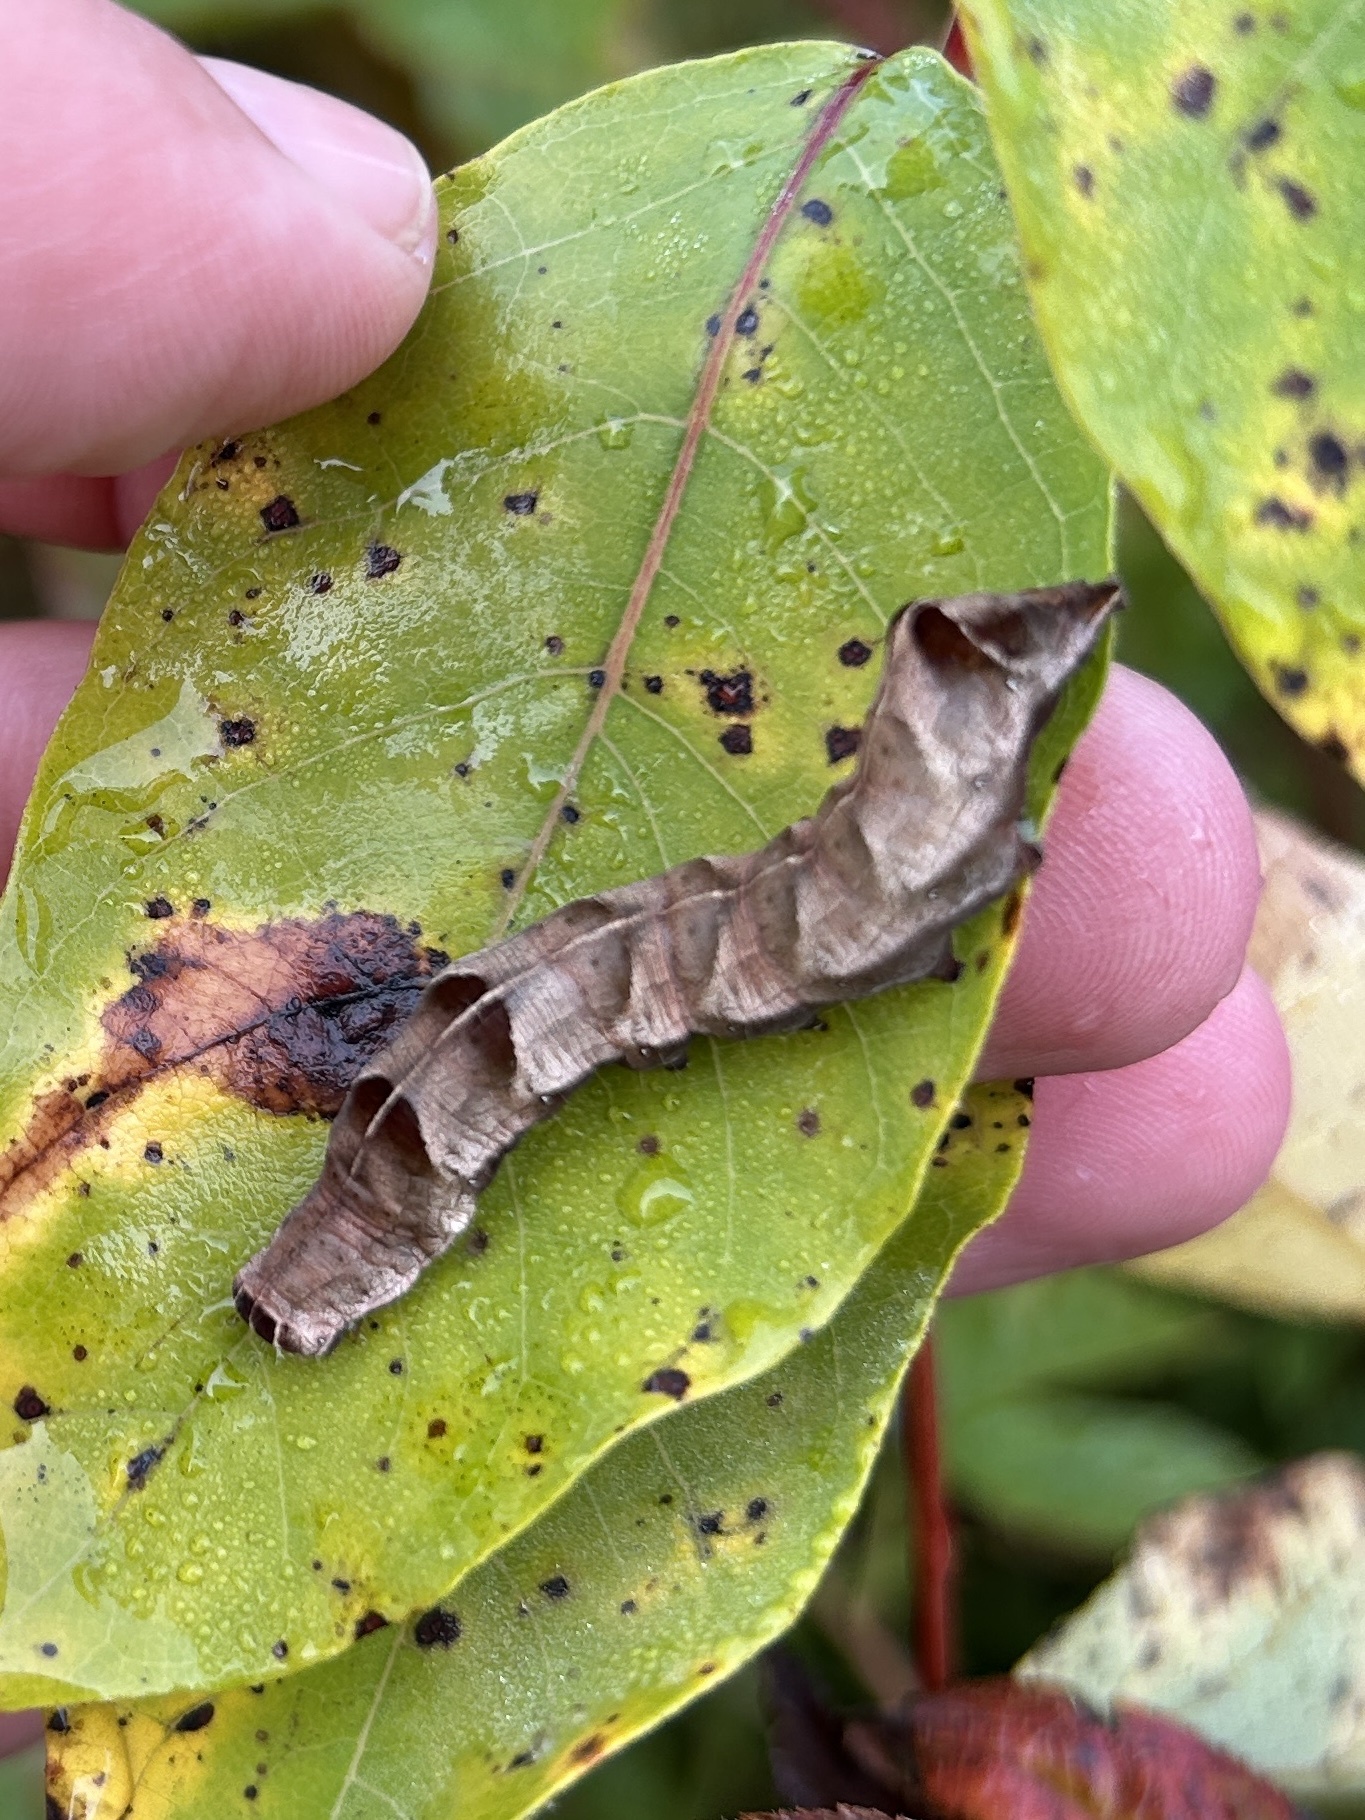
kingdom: Animalia
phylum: Arthropoda
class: Insecta
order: Lepidoptera
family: Noctuidae
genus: Melanchra
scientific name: Melanchra adjuncta
